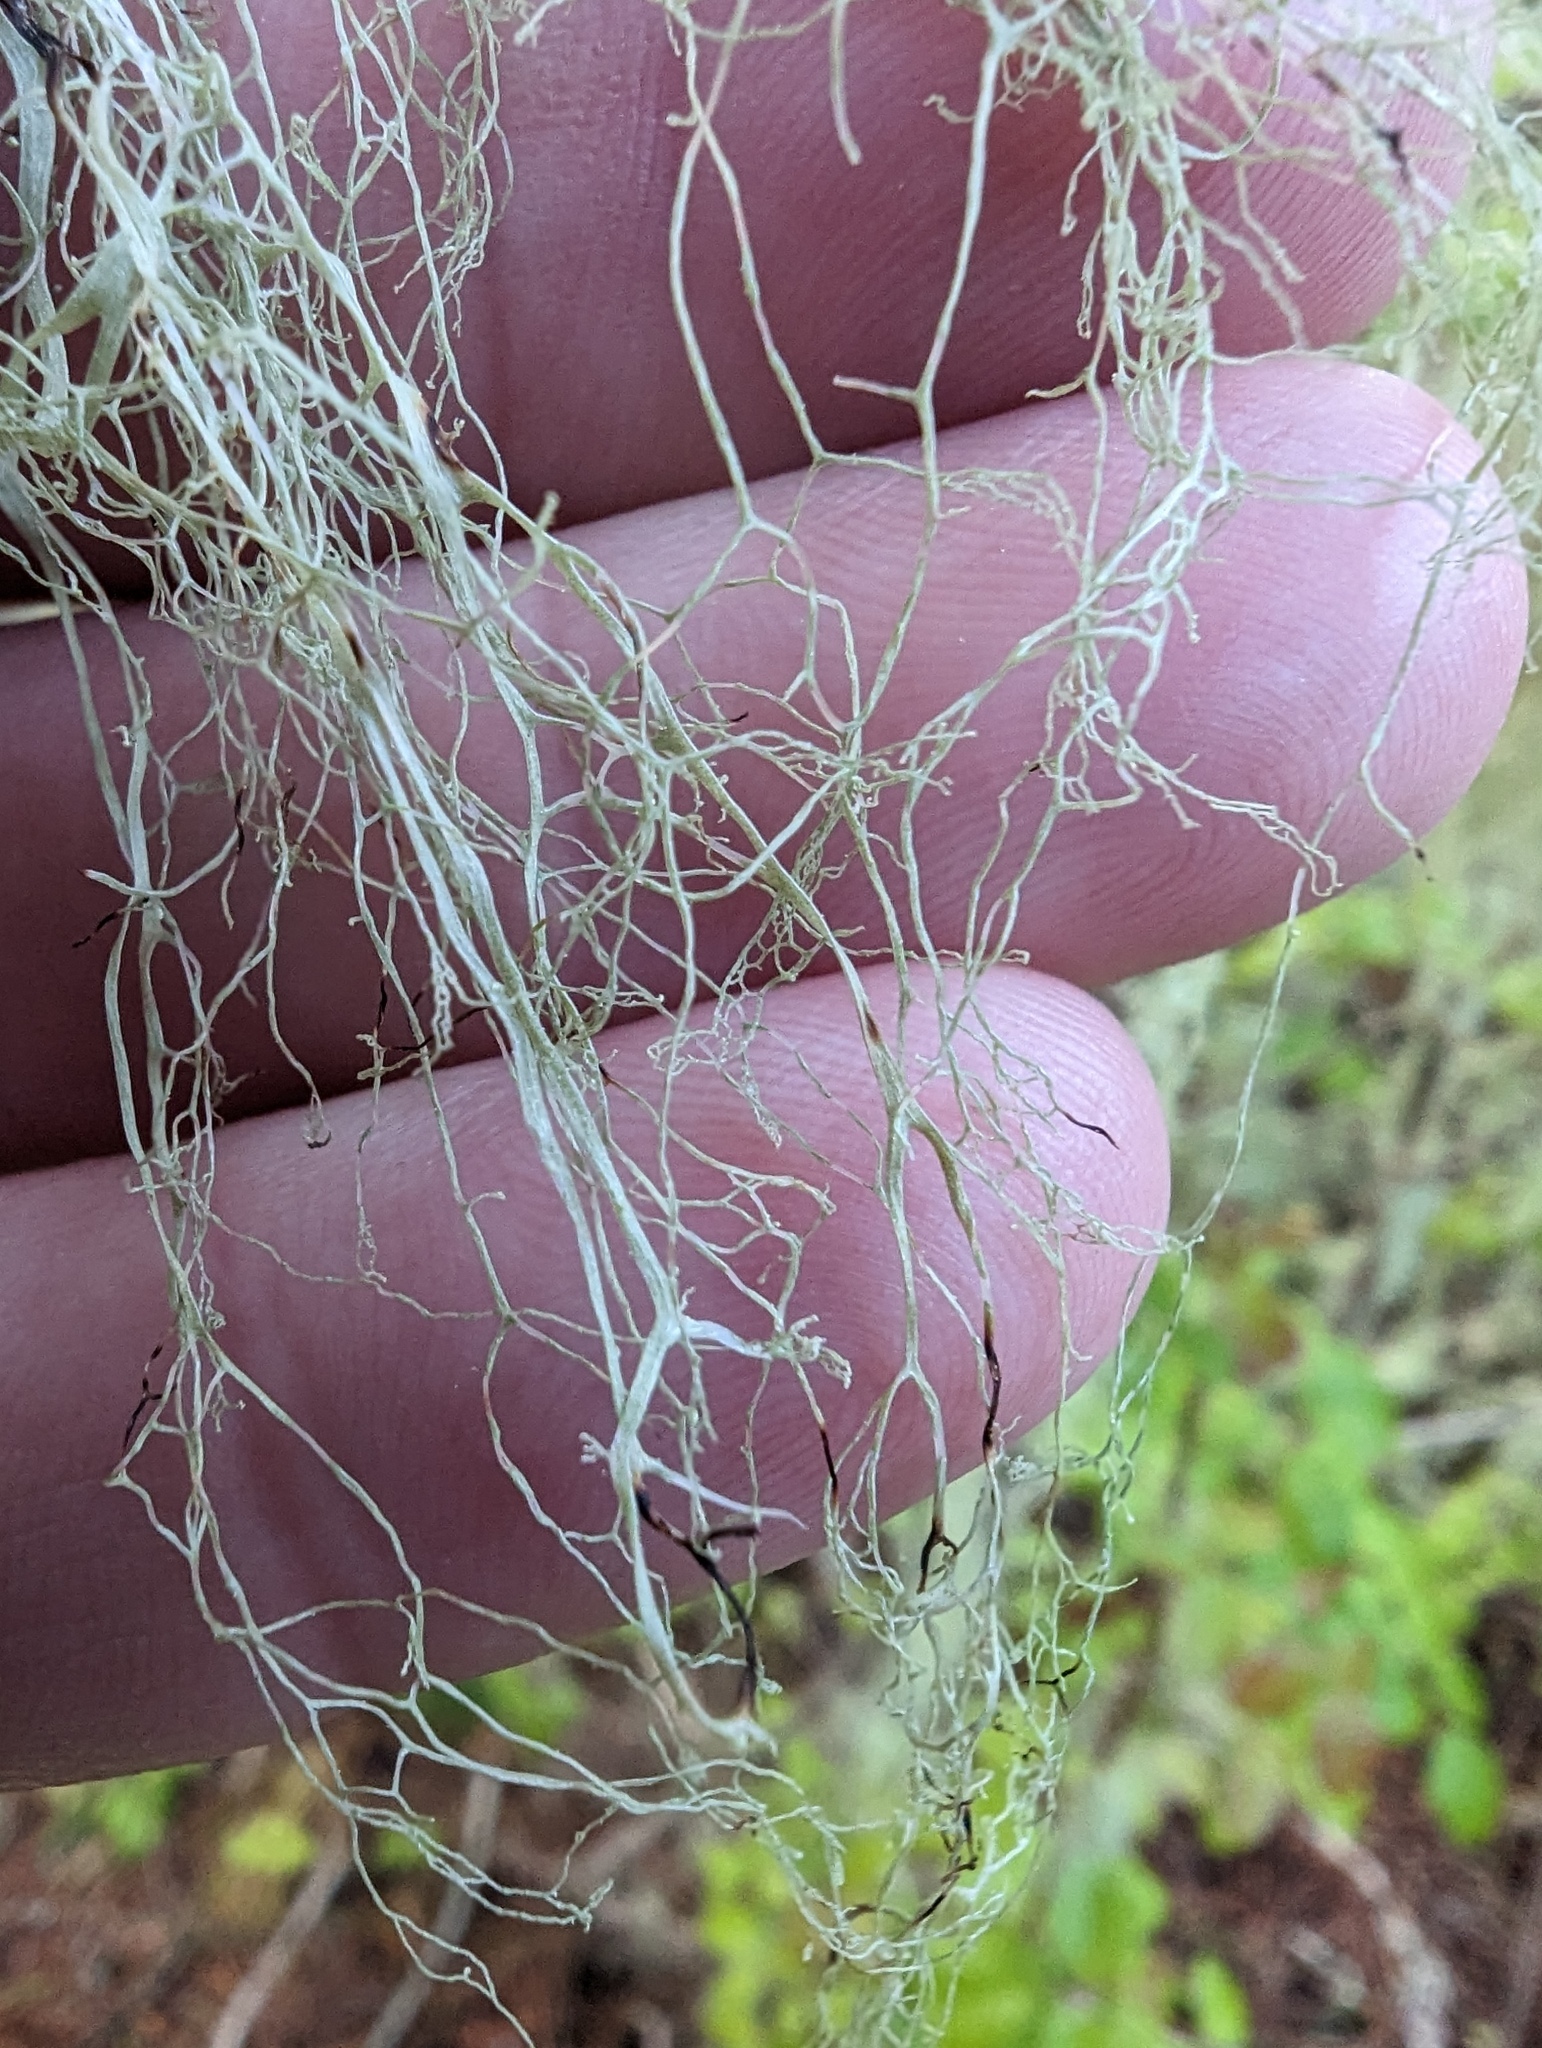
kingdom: Fungi
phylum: Ascomycota
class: Lecanoromycetes
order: Lecanorales
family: Ramalinaceae
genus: Ramalina
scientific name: Ramalina menziesii
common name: Lace lichen
